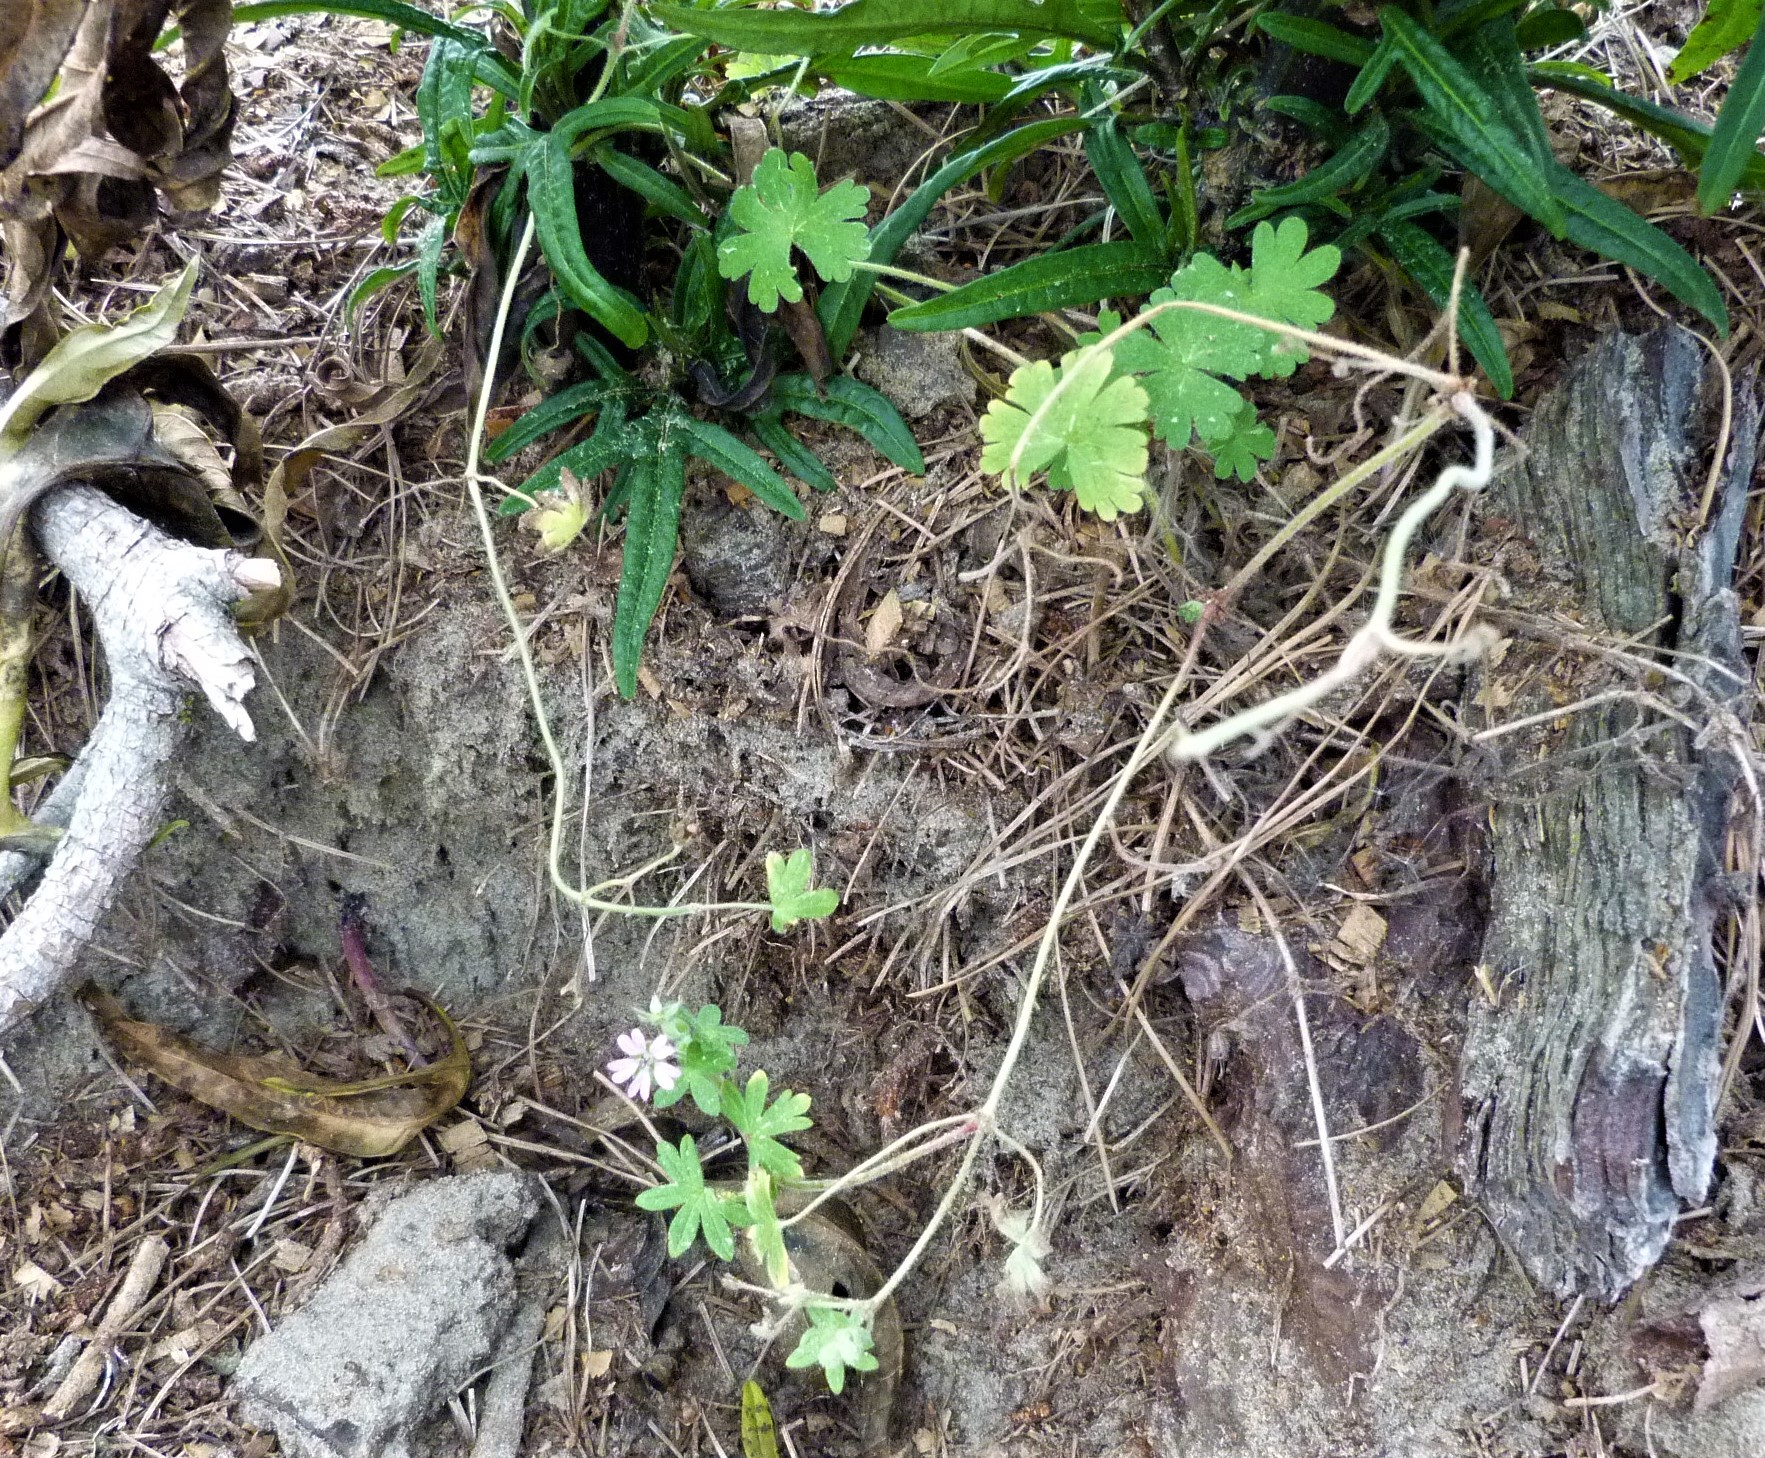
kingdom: Plantae
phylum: Tracheophyta
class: Magnoliopsida
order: Geraniales
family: Geraniaceae
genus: Geranium
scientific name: Geranium retrorsum
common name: New zealand geranium
